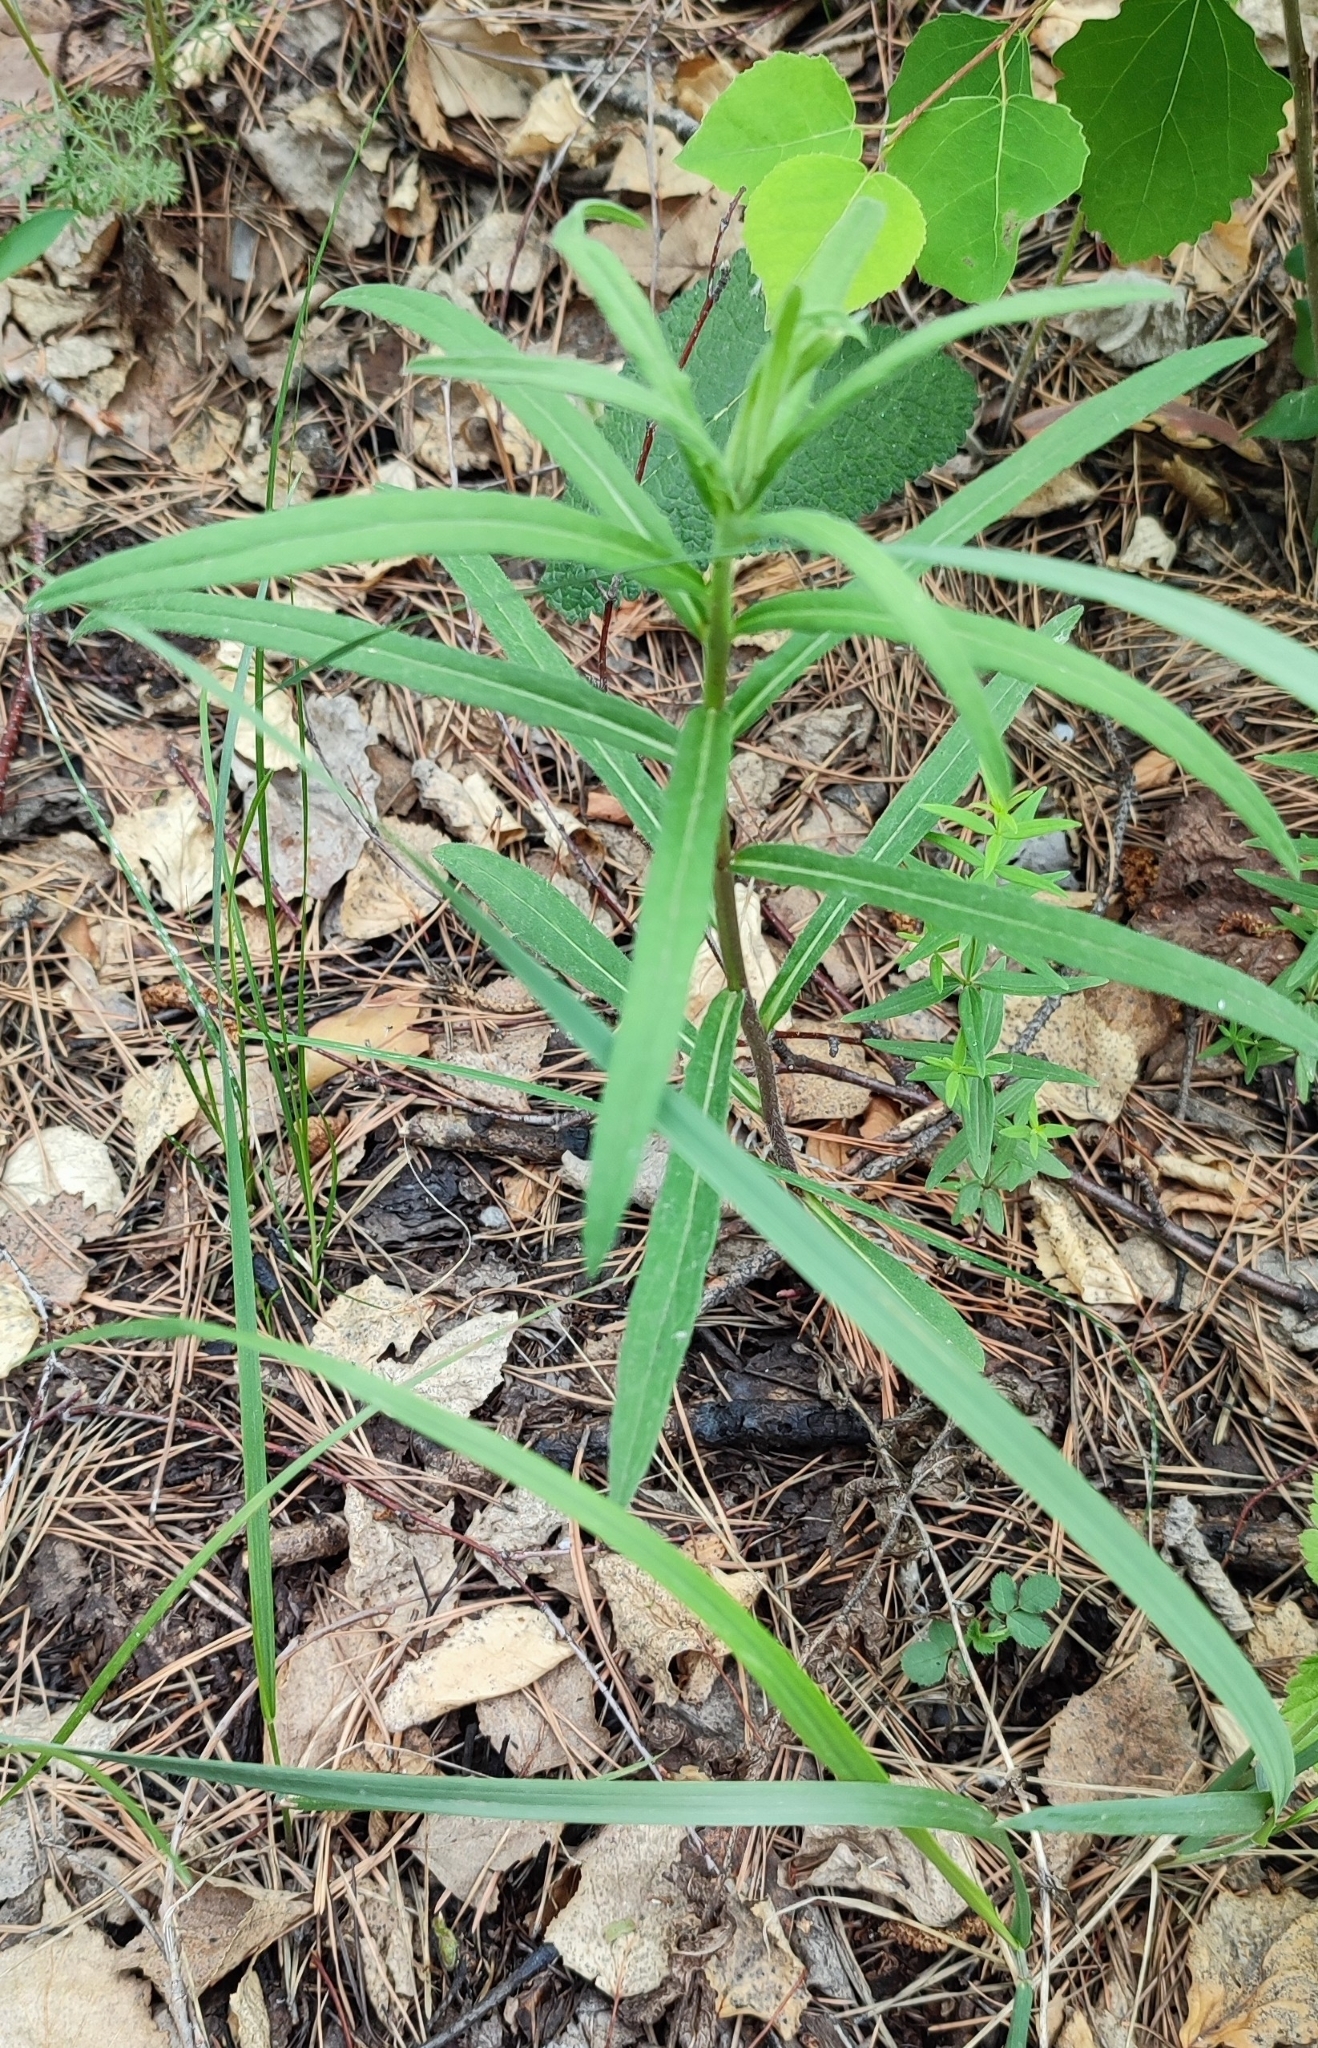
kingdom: Plantae
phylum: Tracheophyta
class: Magnoliopsida
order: Asterales
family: Asteraceae
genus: Hieracium
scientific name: Hieracium umbellatum
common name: Northern hawkweed
